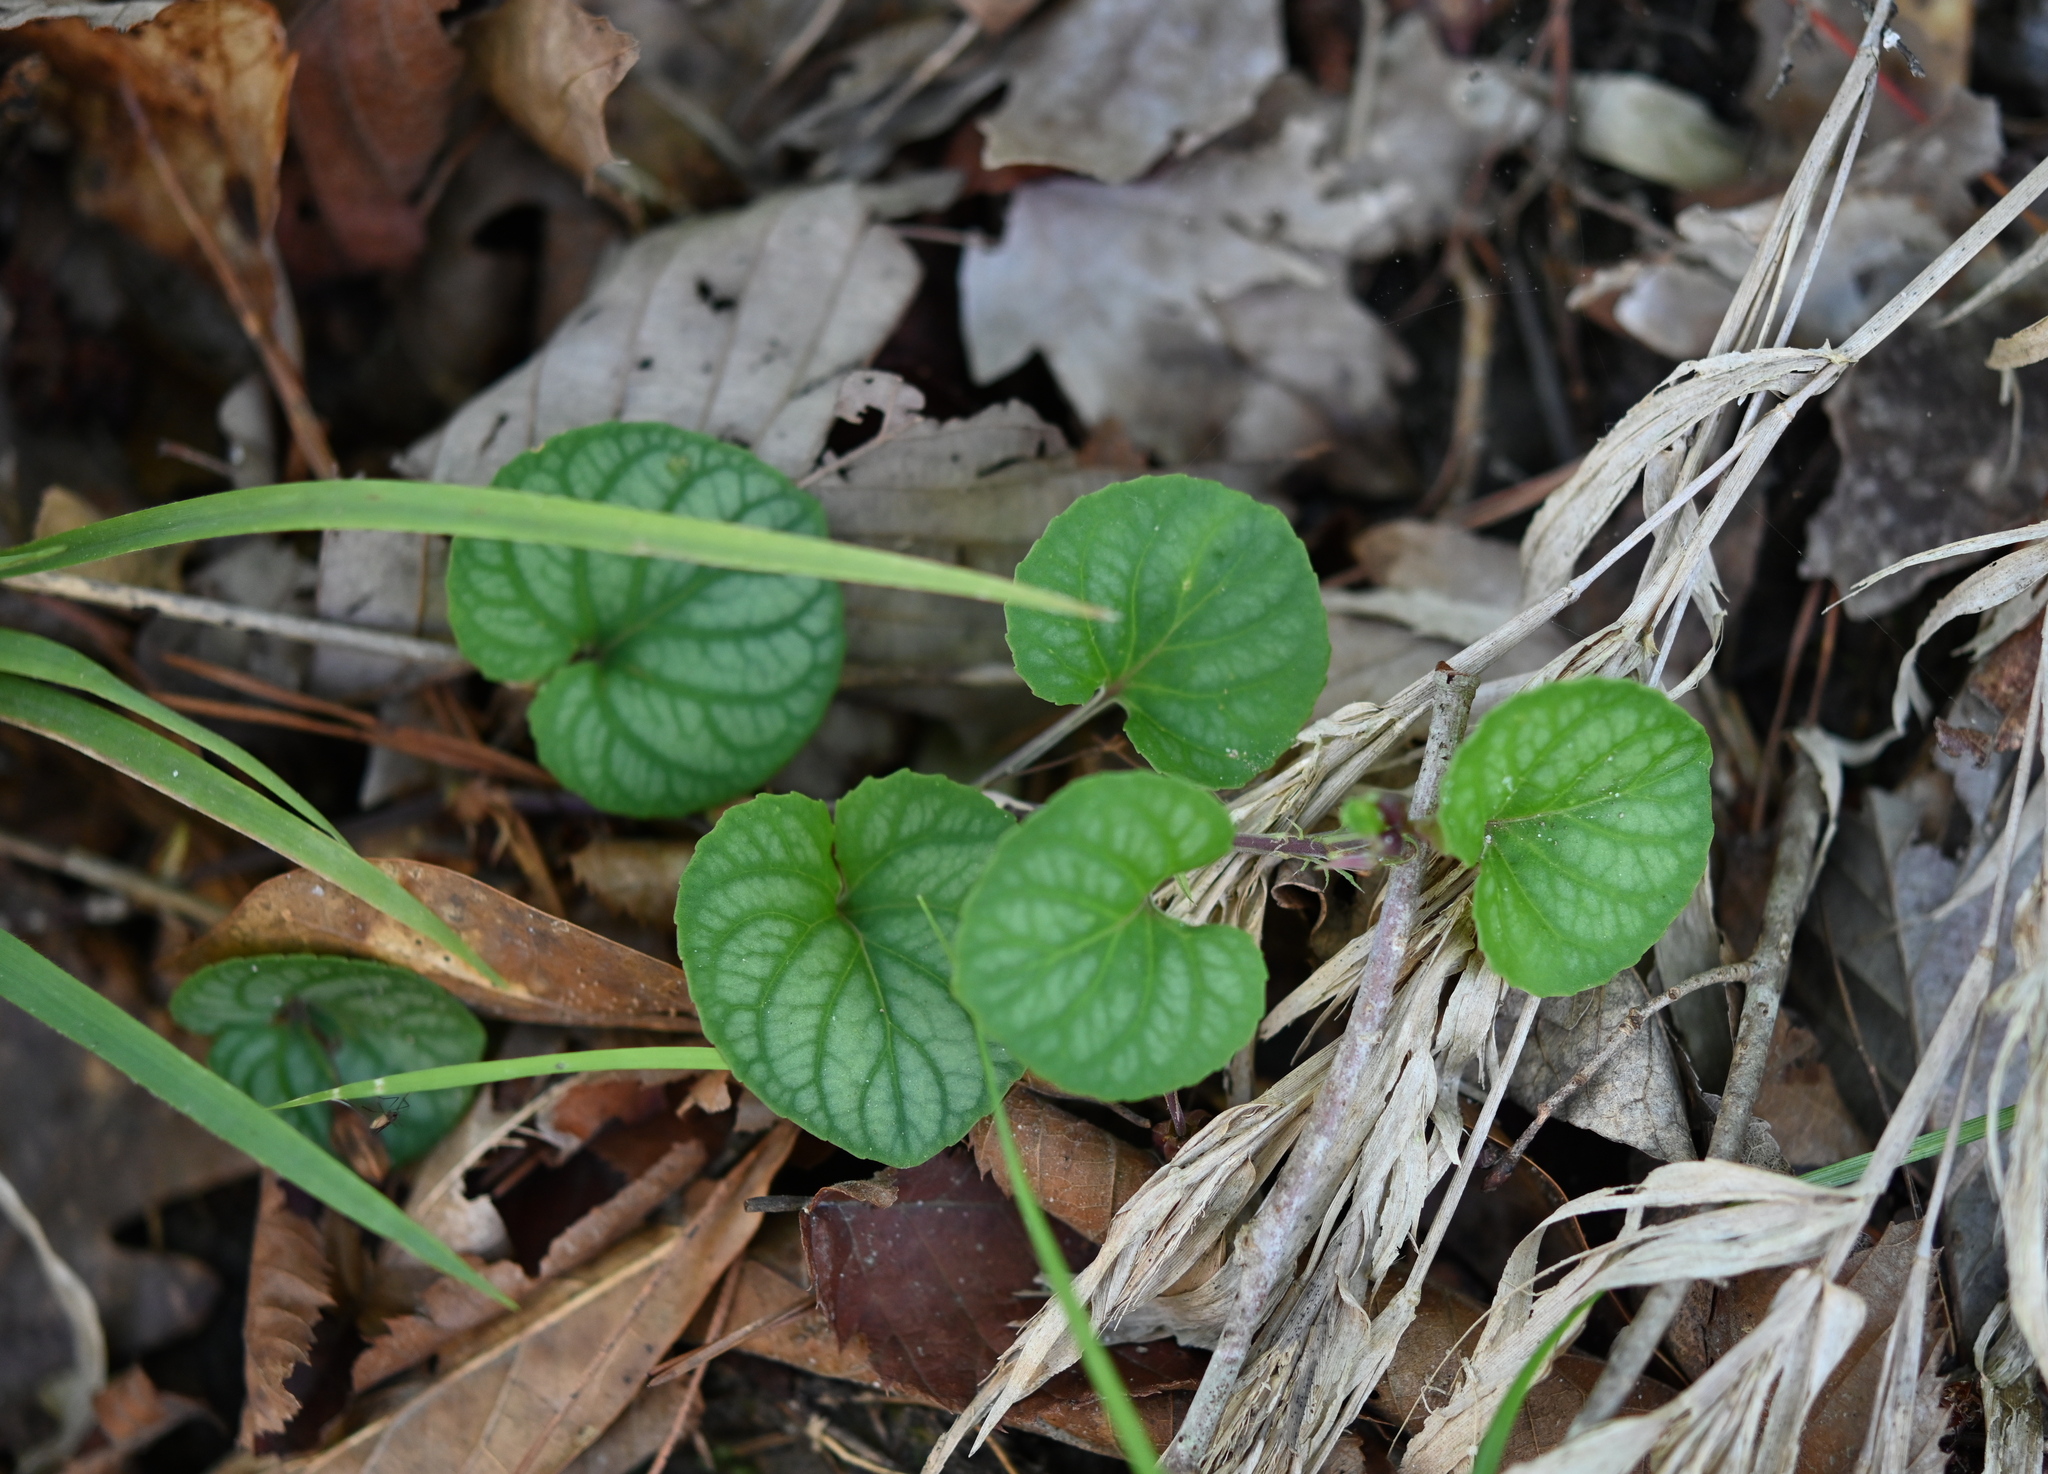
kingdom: Plantae
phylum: Tracheophyta
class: Magnoliopsida
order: Malpighiales
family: Violaceae
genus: Viola
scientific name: Viola walteri
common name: Prostrate southern violet
